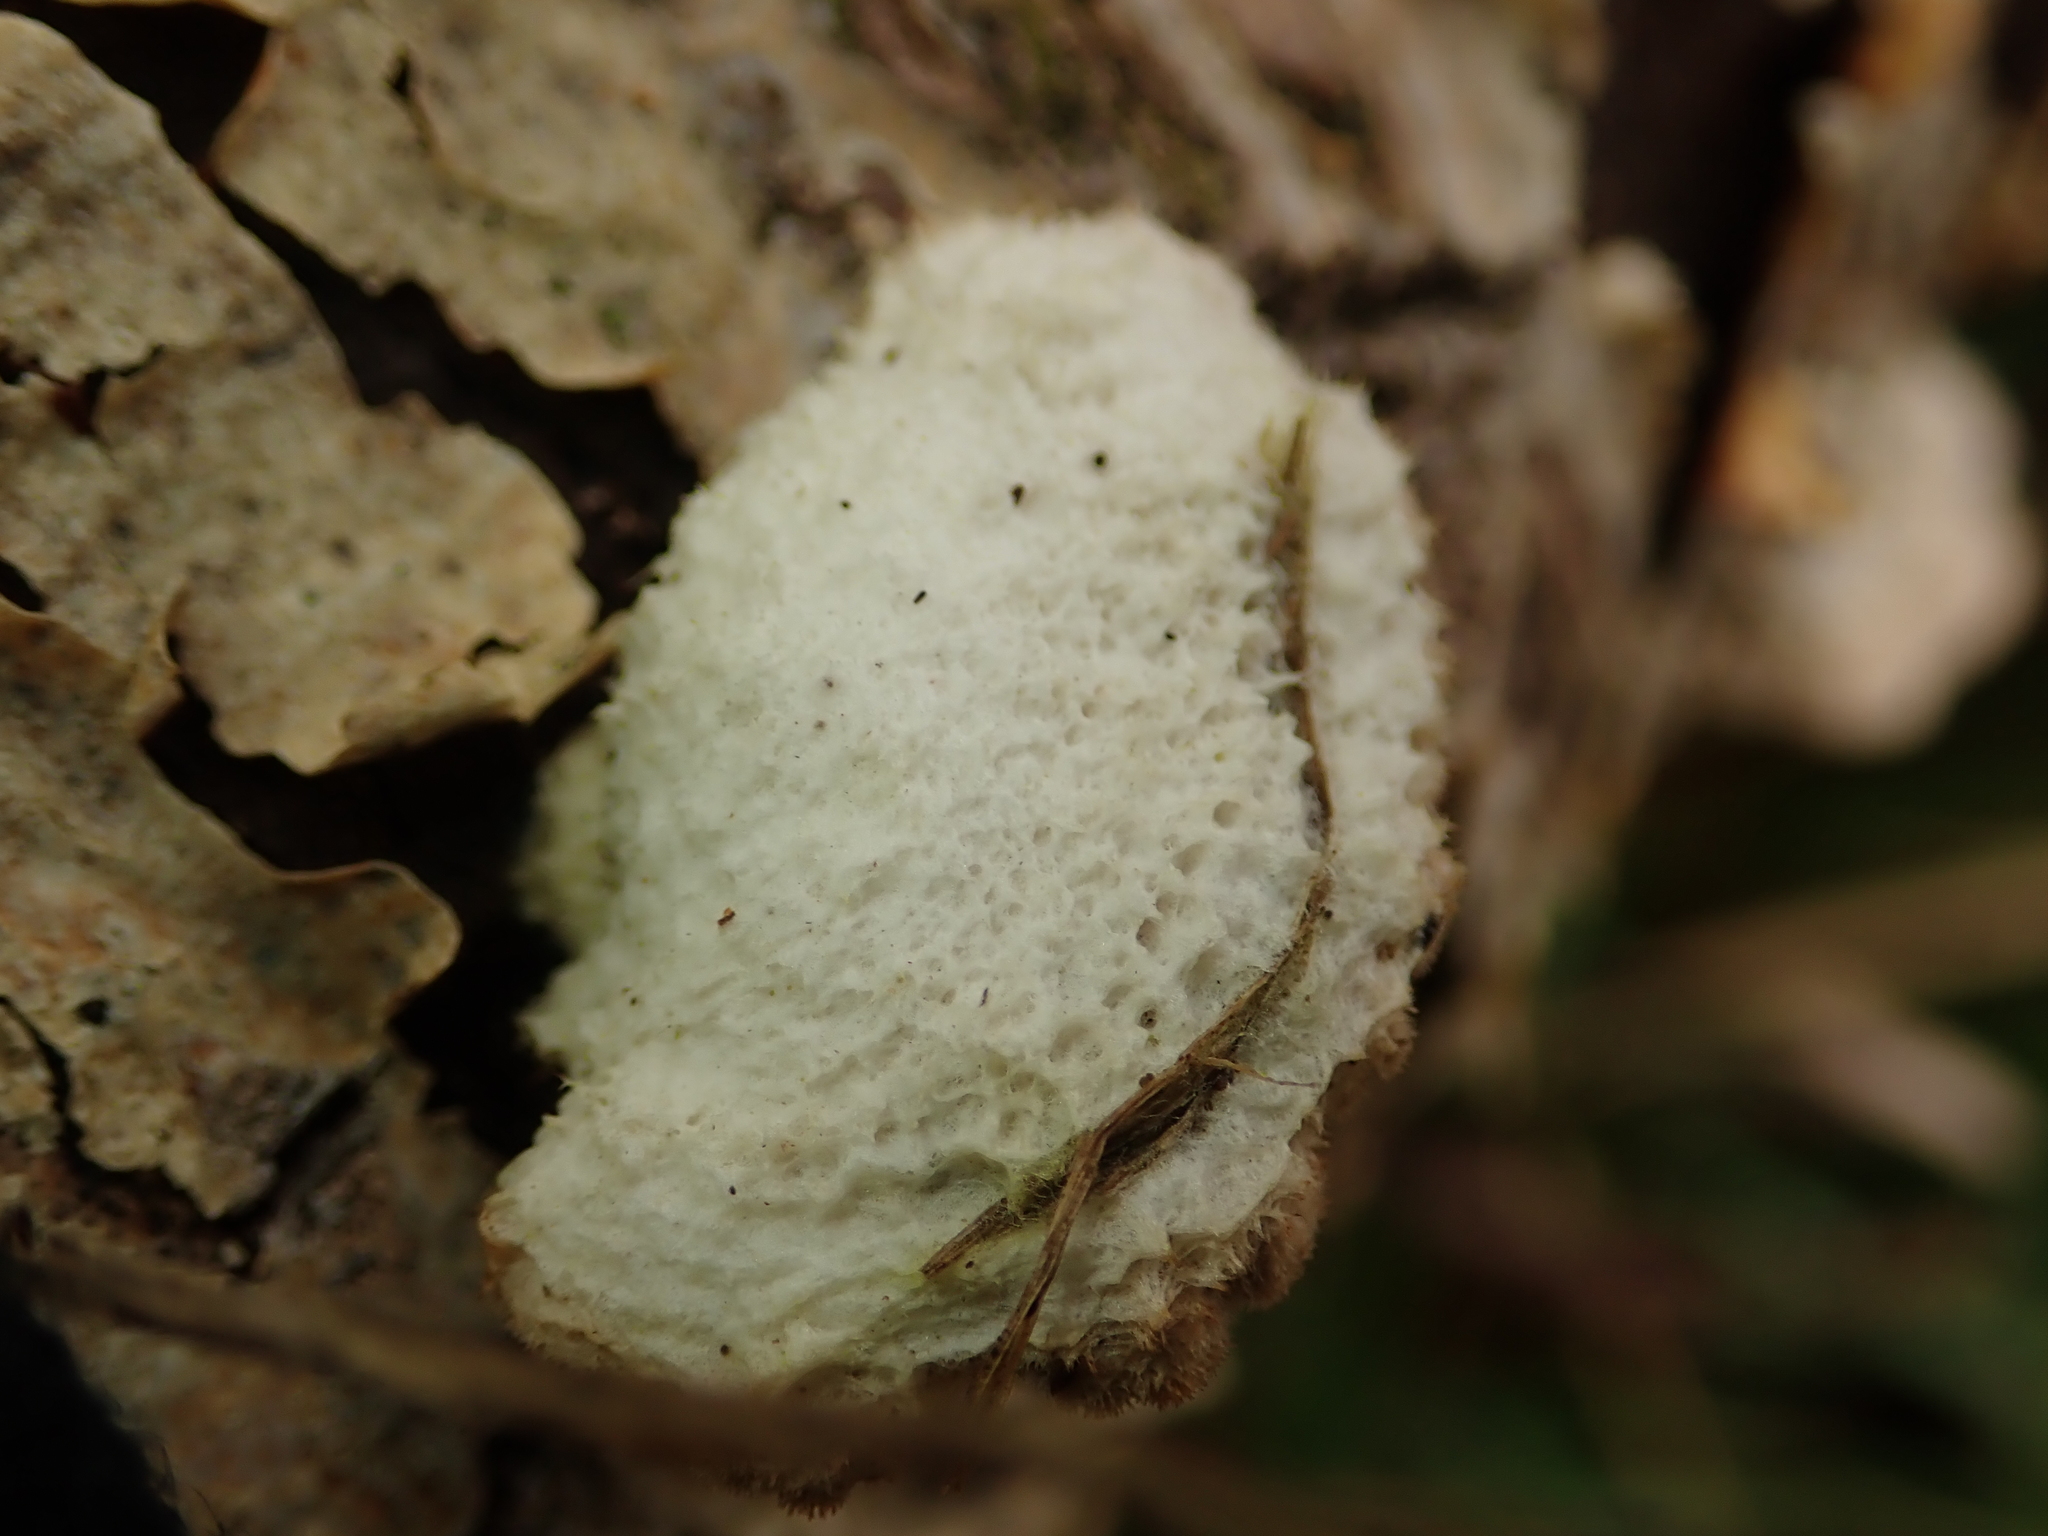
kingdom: Fungi
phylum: Basidiomycota
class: Agaricomycetes
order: Agaricales
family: Schizophyllaceae
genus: Schizophyllum
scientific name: Schizophyllum commune
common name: Common porecrust
